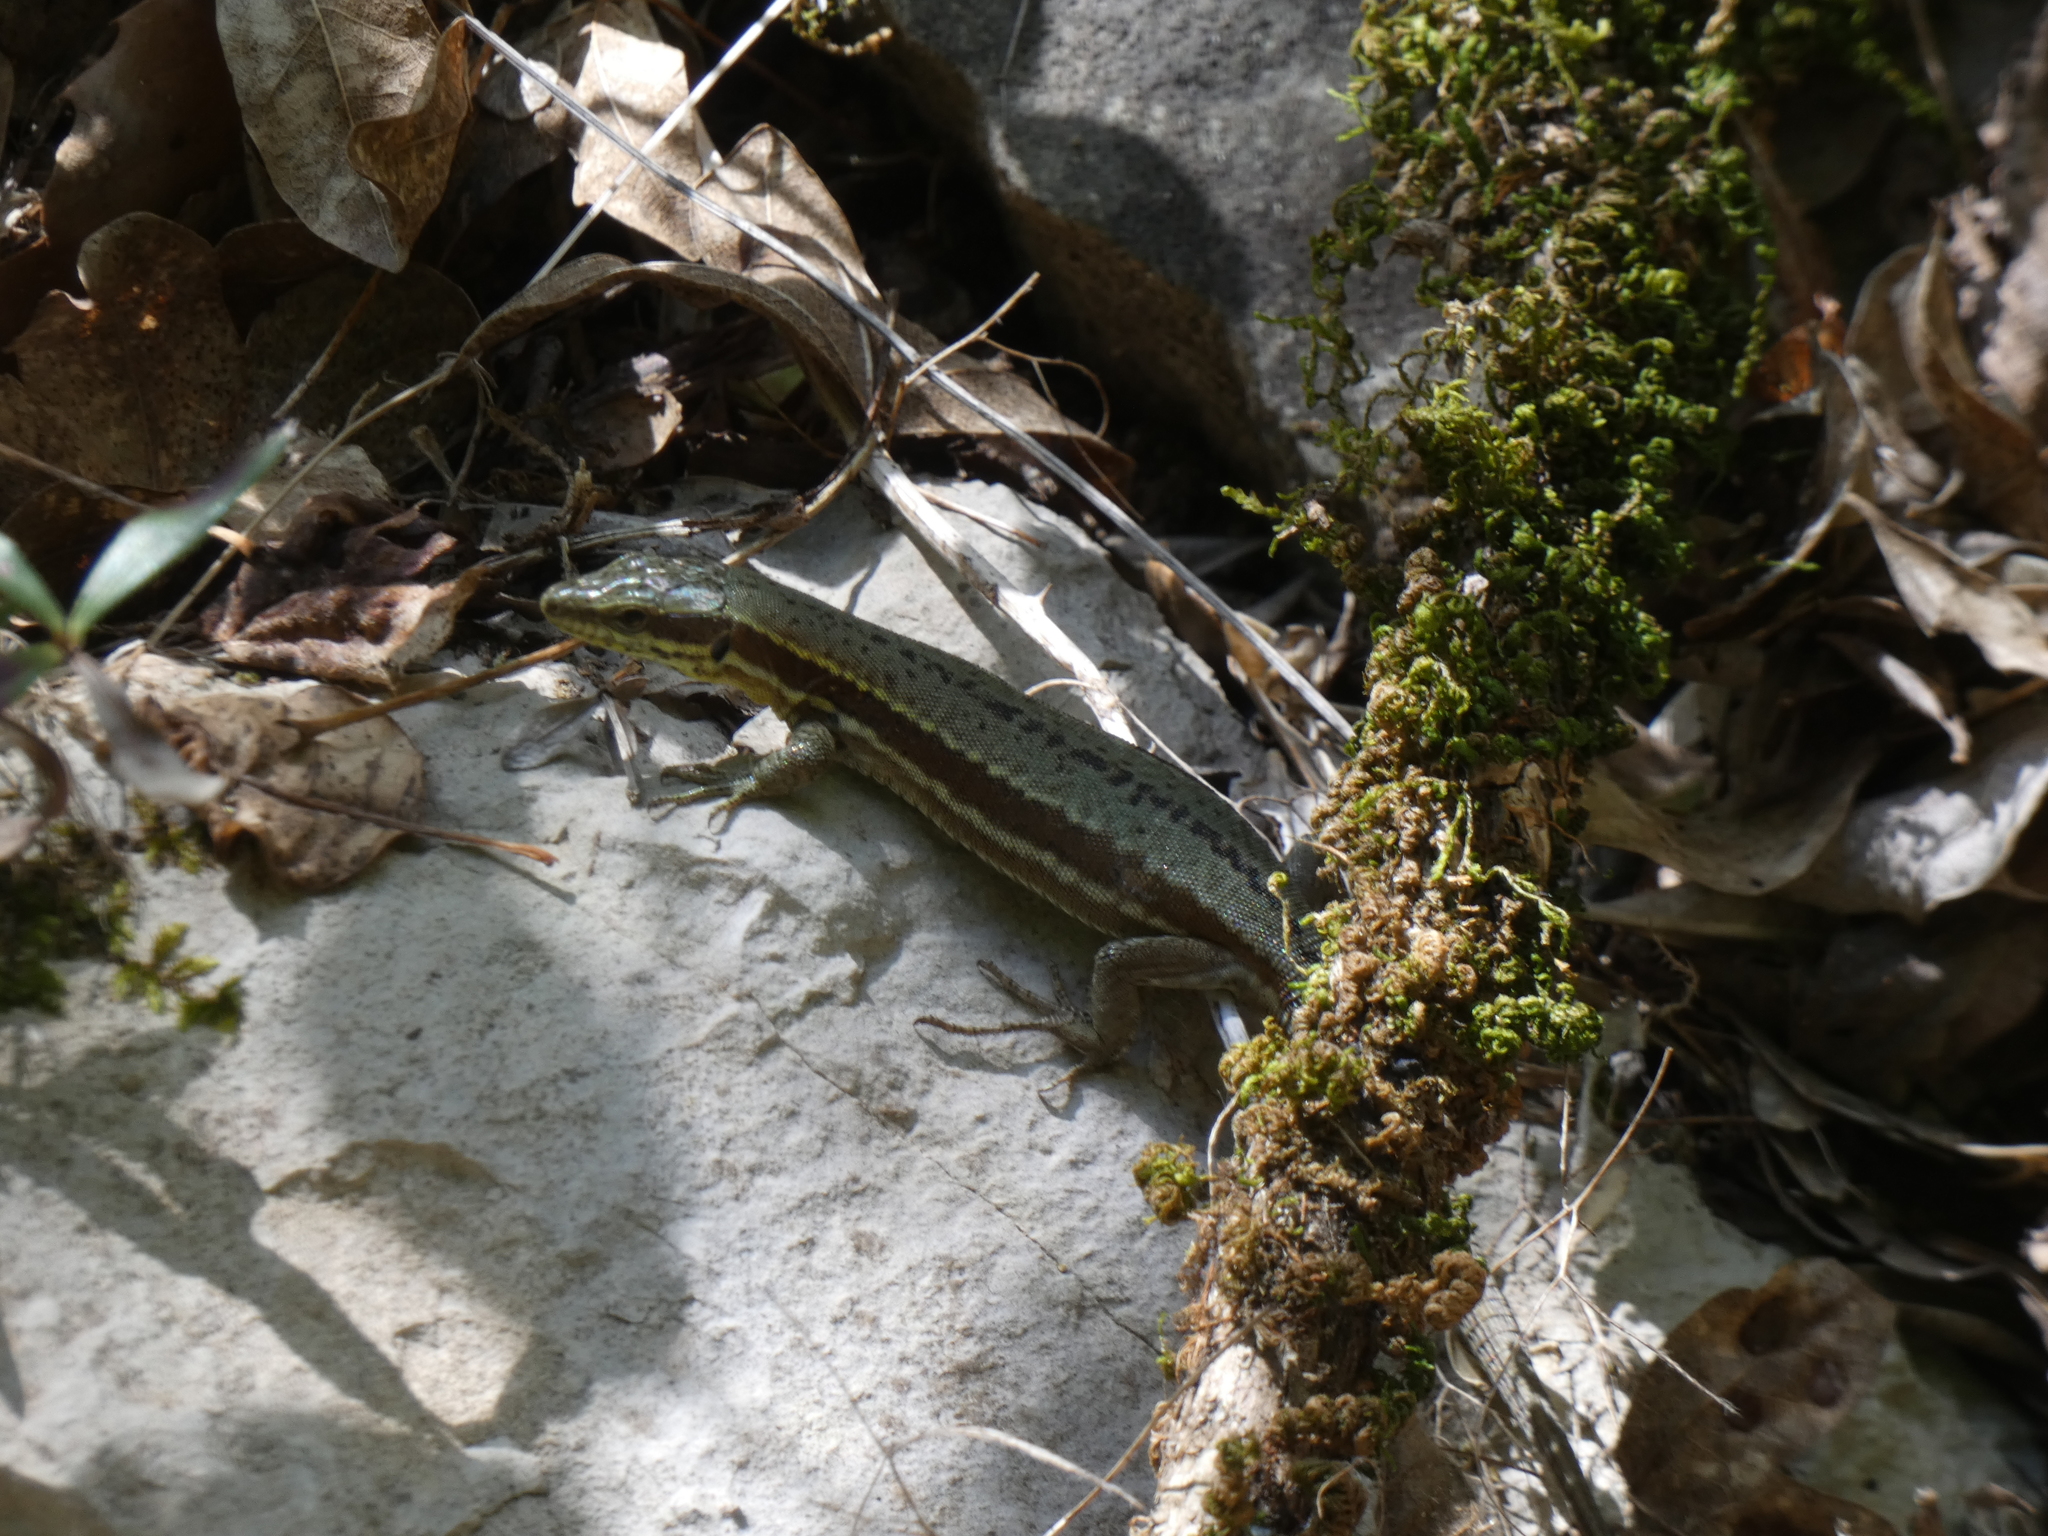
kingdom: Animalia
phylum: Chordata
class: Squamata
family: Lacertidae
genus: Podarcis
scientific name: Podarcis muralis
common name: Common wall lizard
